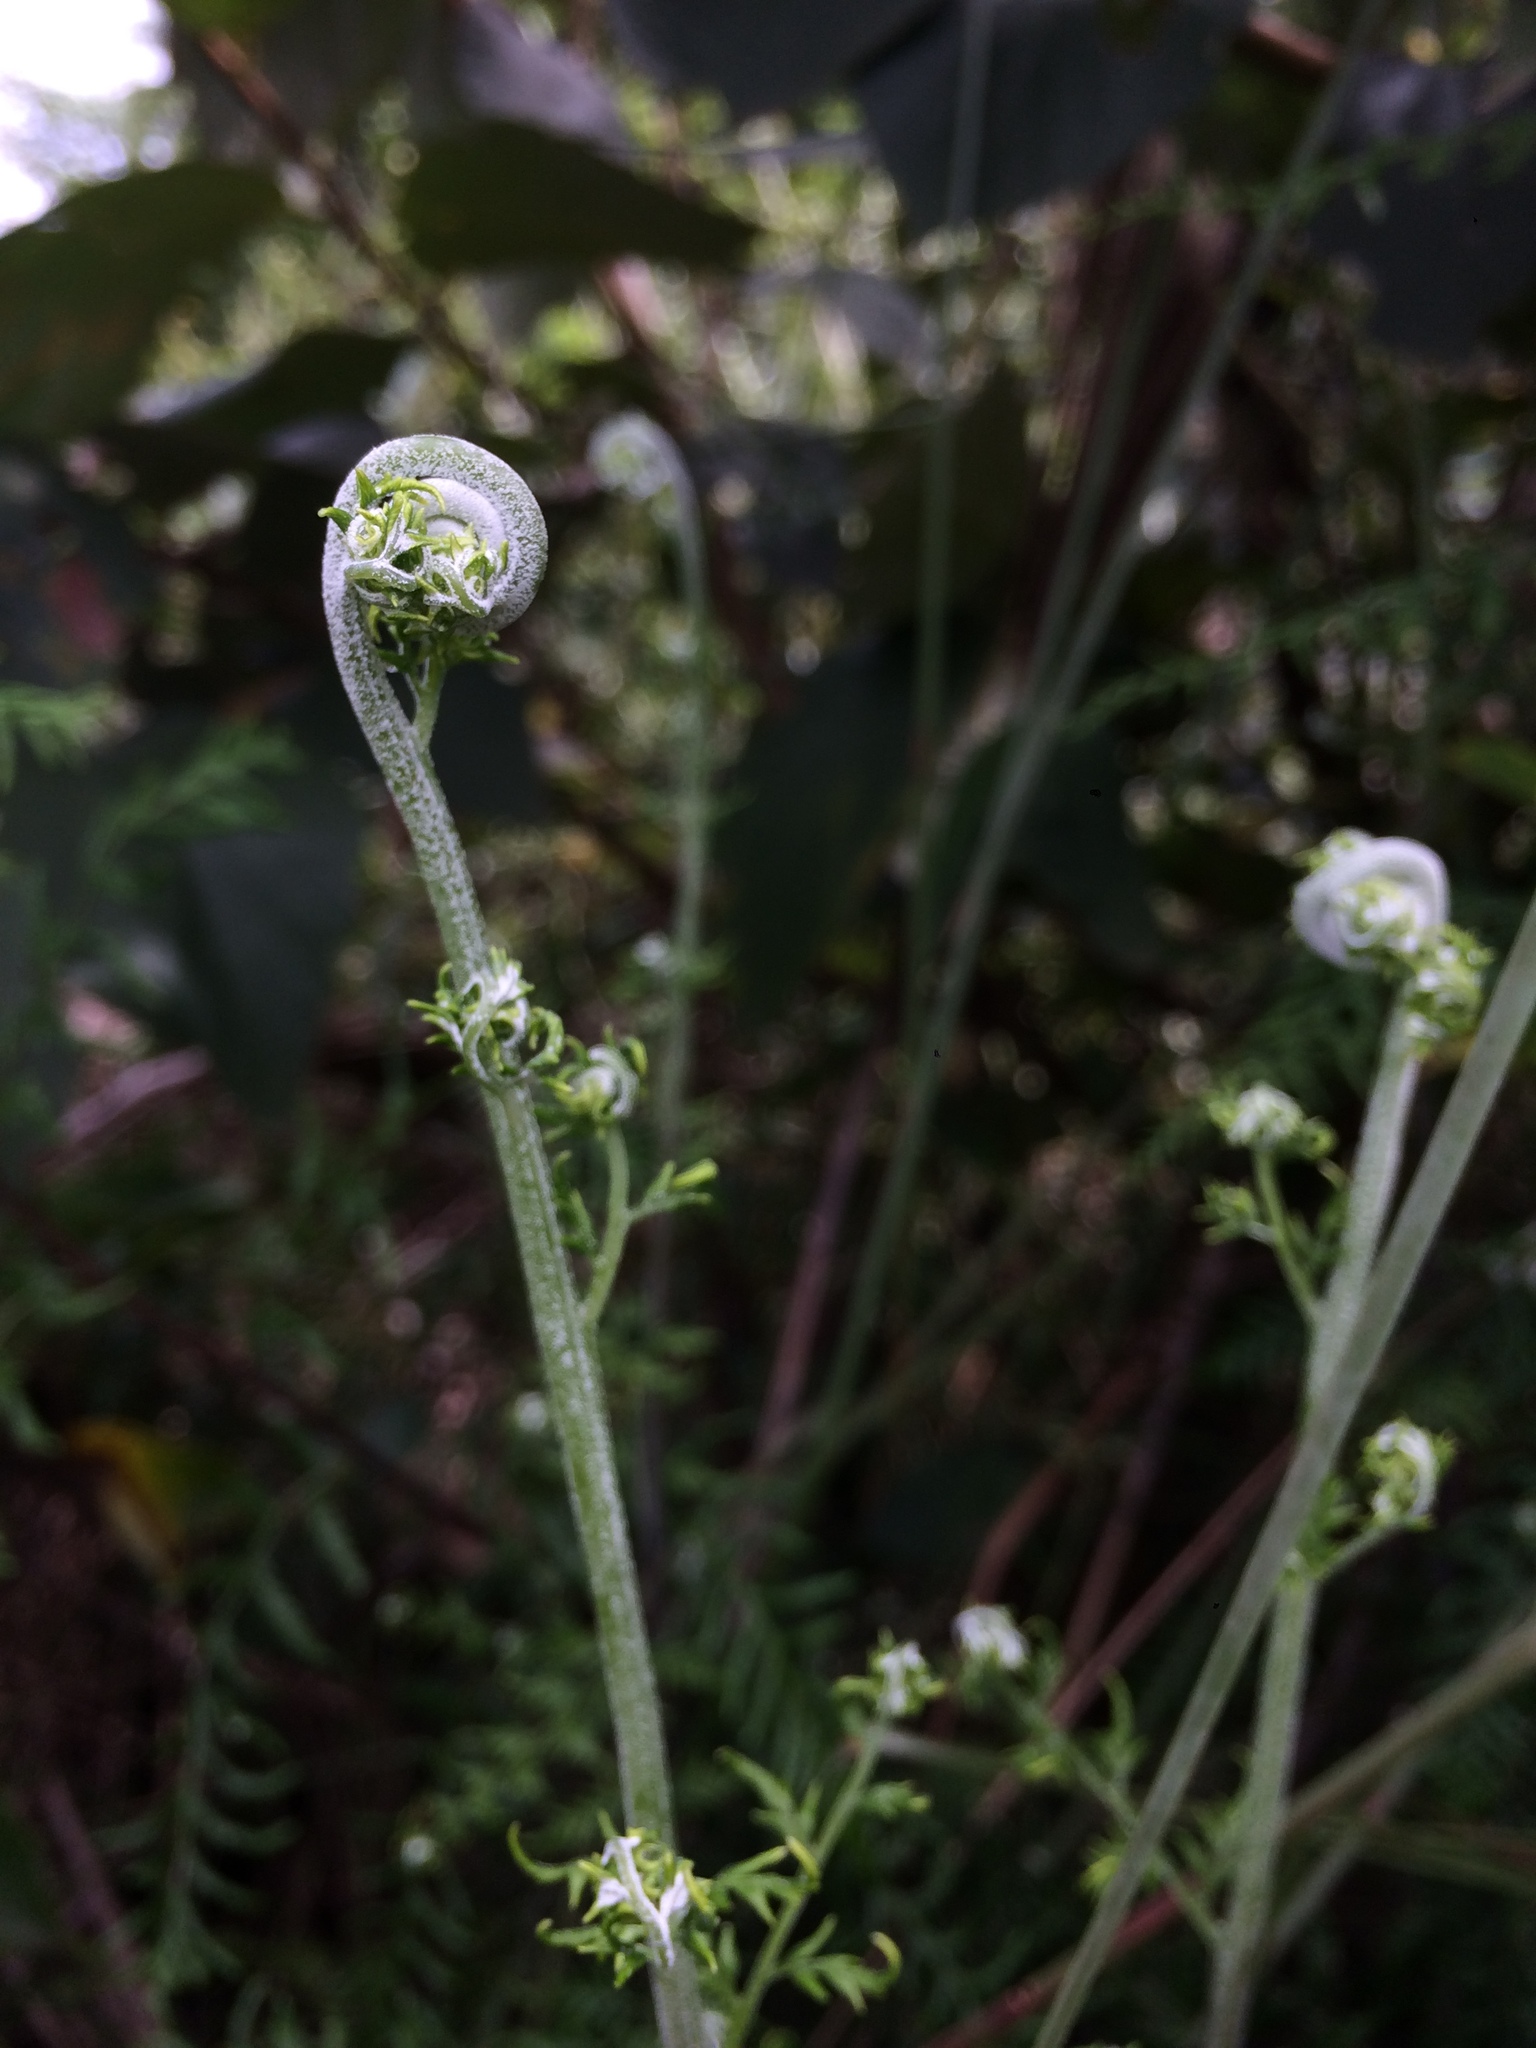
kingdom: Plantae
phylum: Tracheophyta
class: Polypodiopsida
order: Polypodiales
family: Pteridaceae
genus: Pityrogramma
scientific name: Pityrogramma calomelanos
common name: Dixie silverback fern
